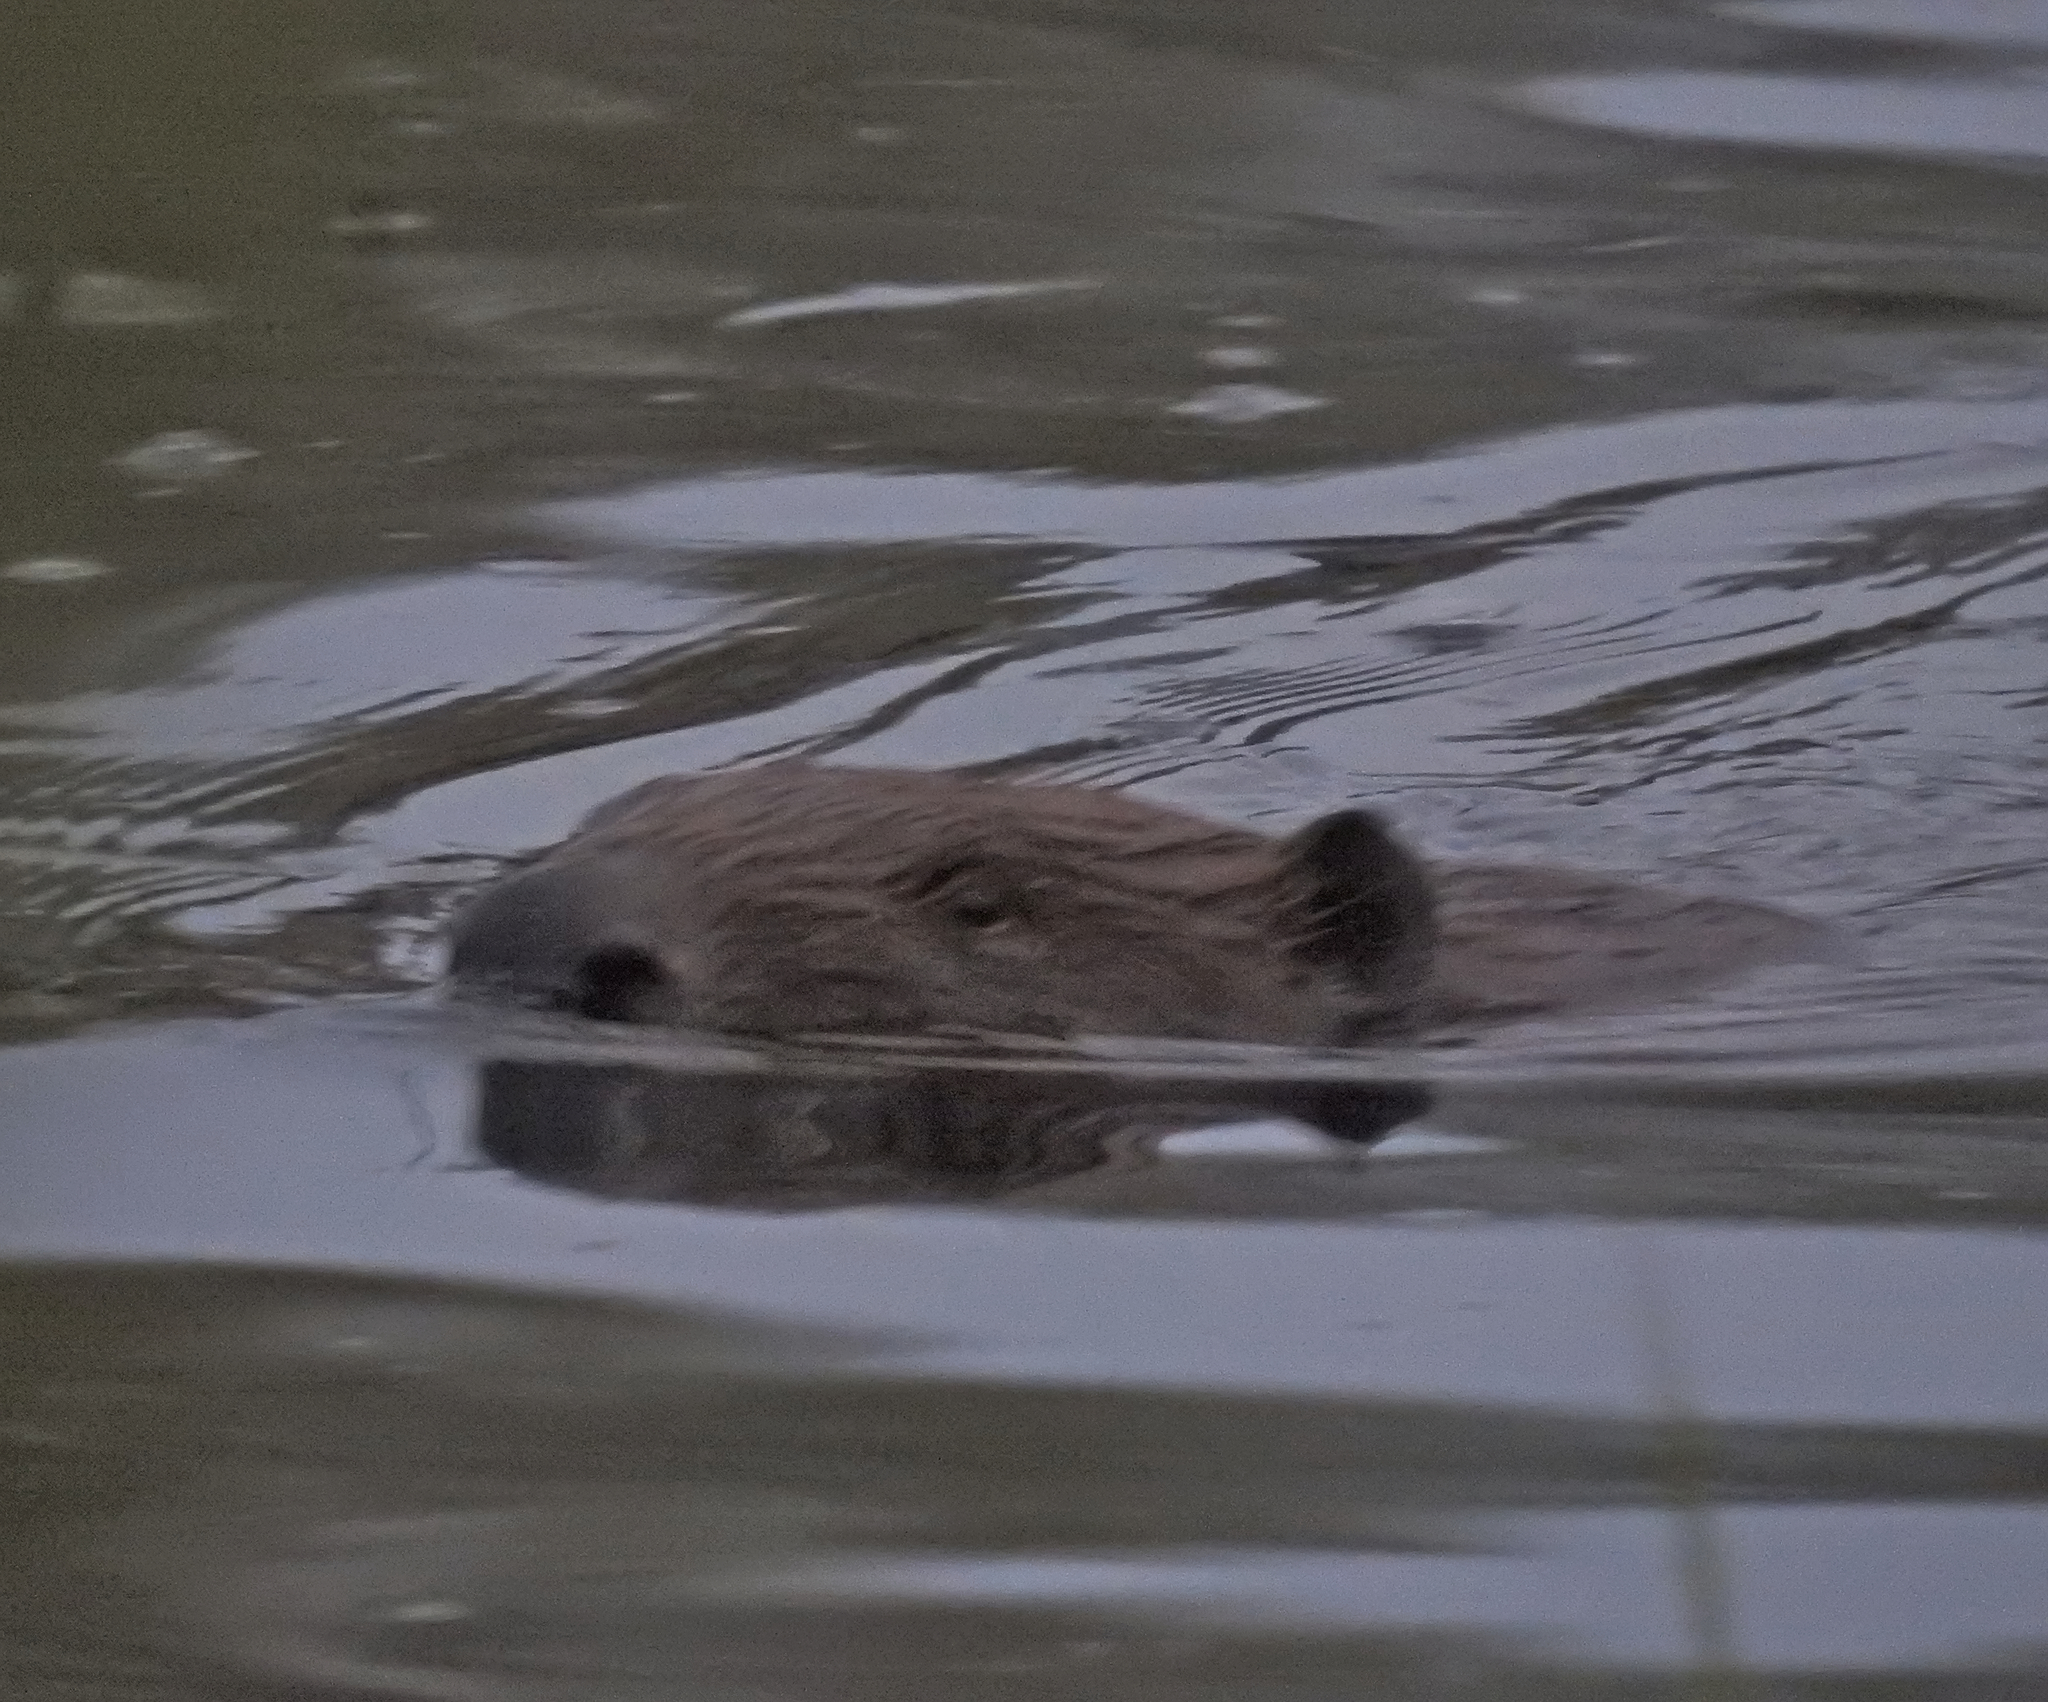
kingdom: Animalia
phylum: Chordata
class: Mammalia
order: Rodentia
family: Castoridae
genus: Castor
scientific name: Castor fiber
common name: Eurasian beaver
